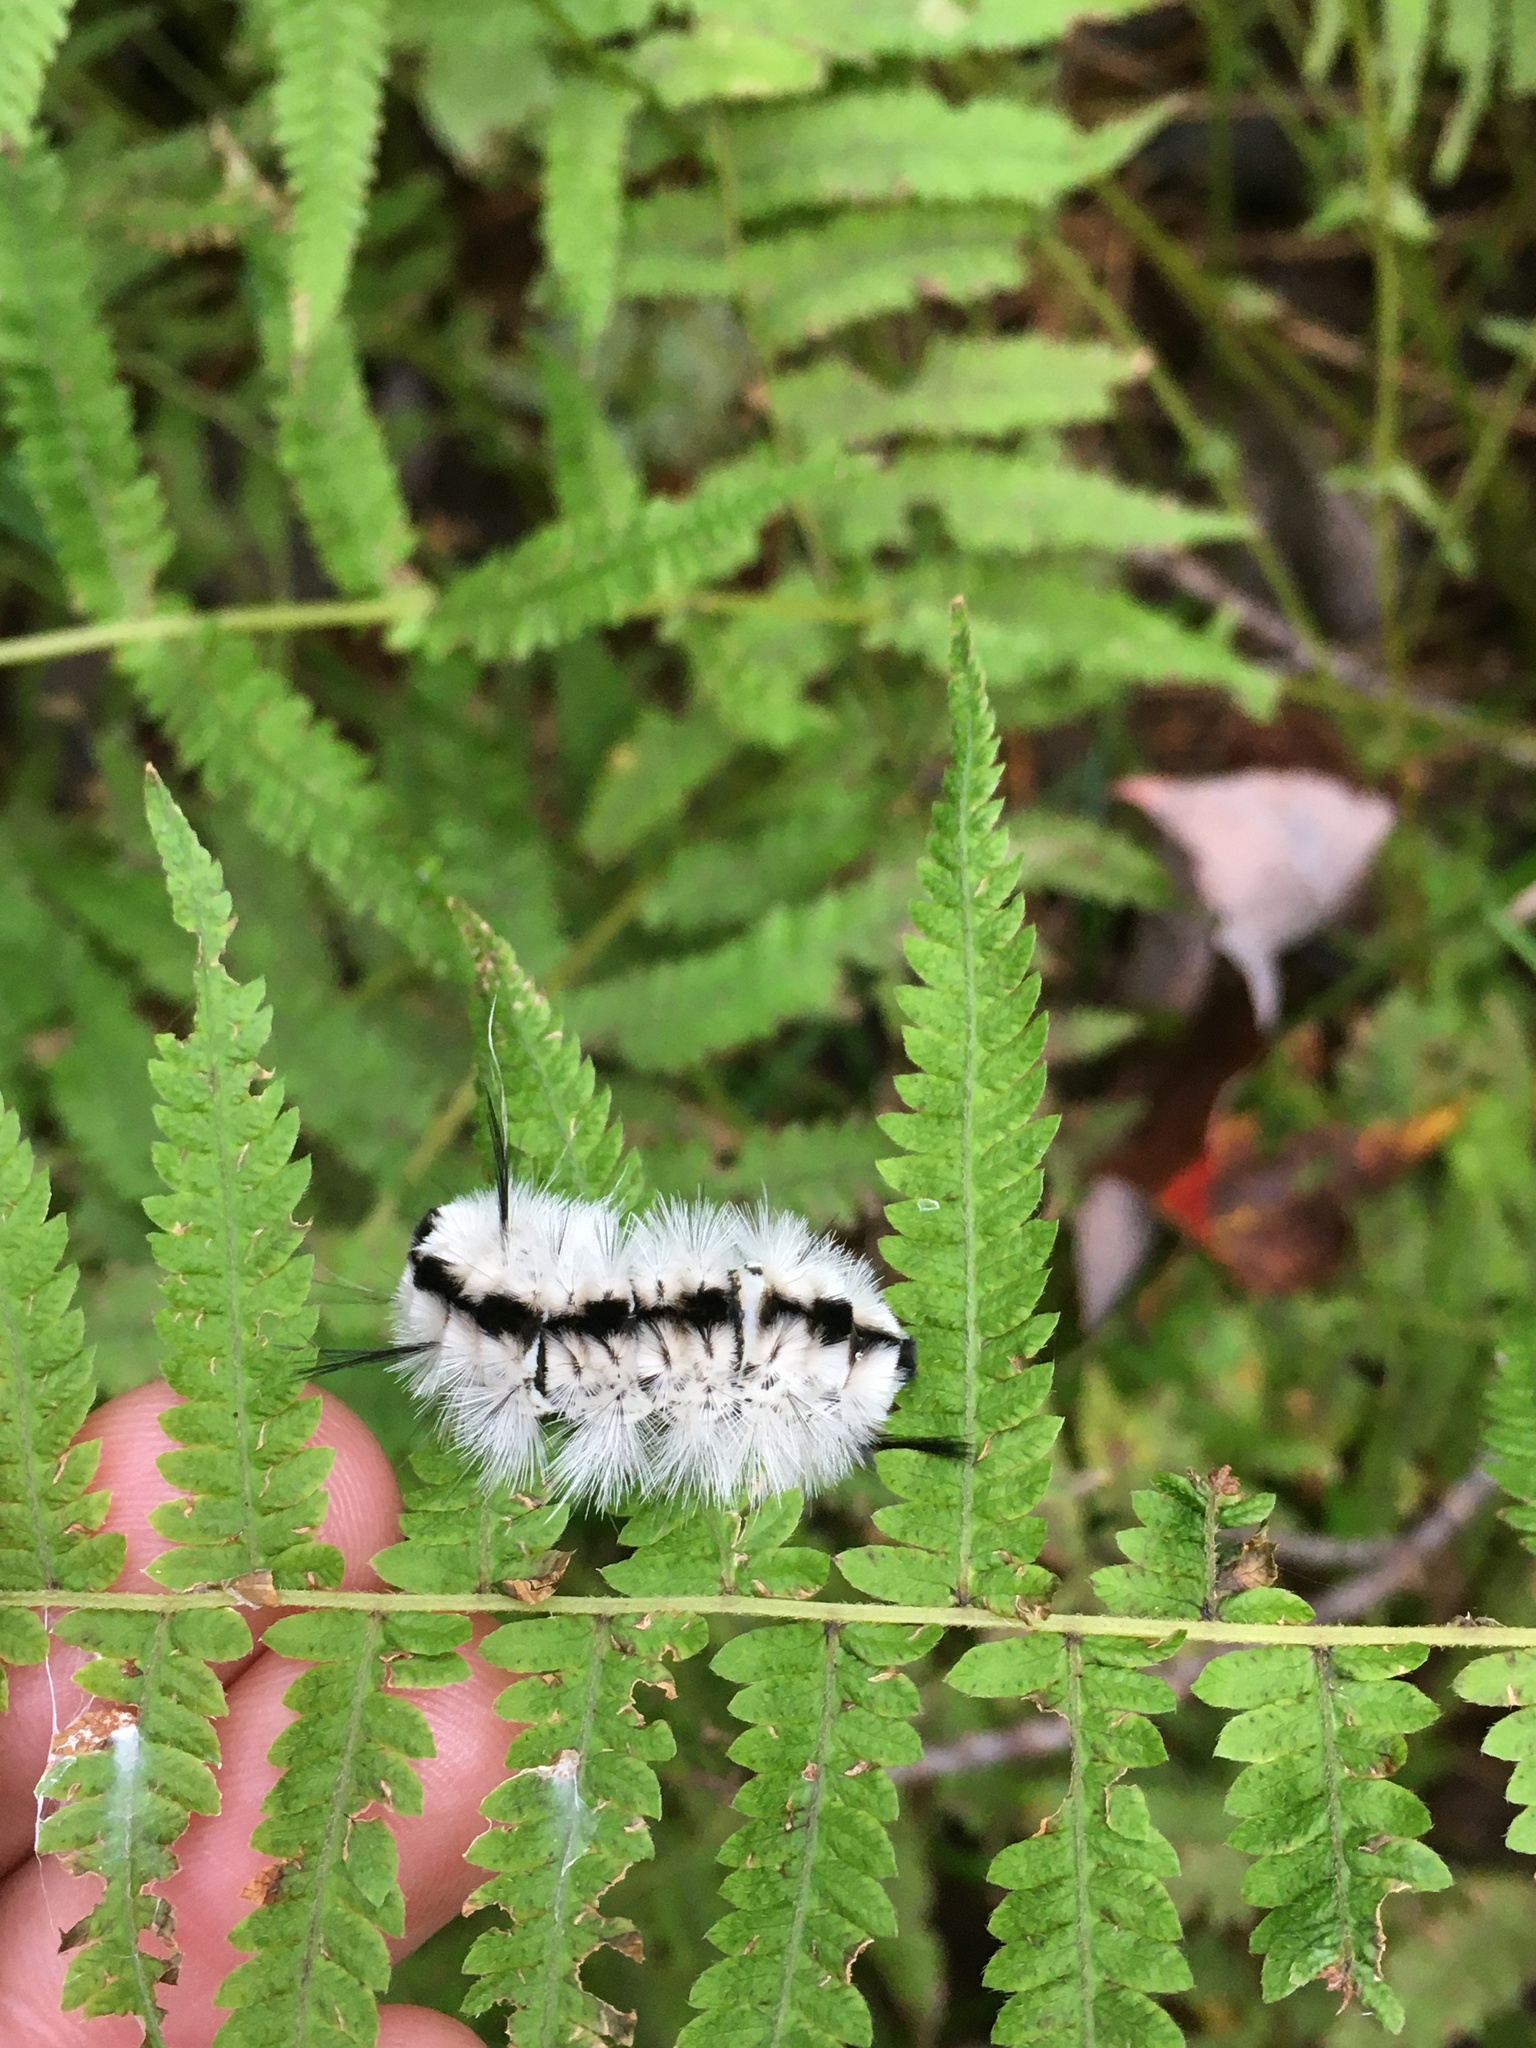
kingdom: Animalia
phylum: Arthropoda
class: Insecta
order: Lepidoptera
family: Erebidae
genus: Lophocampa
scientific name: Lophocampa caryae
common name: Hickory tussock moth
